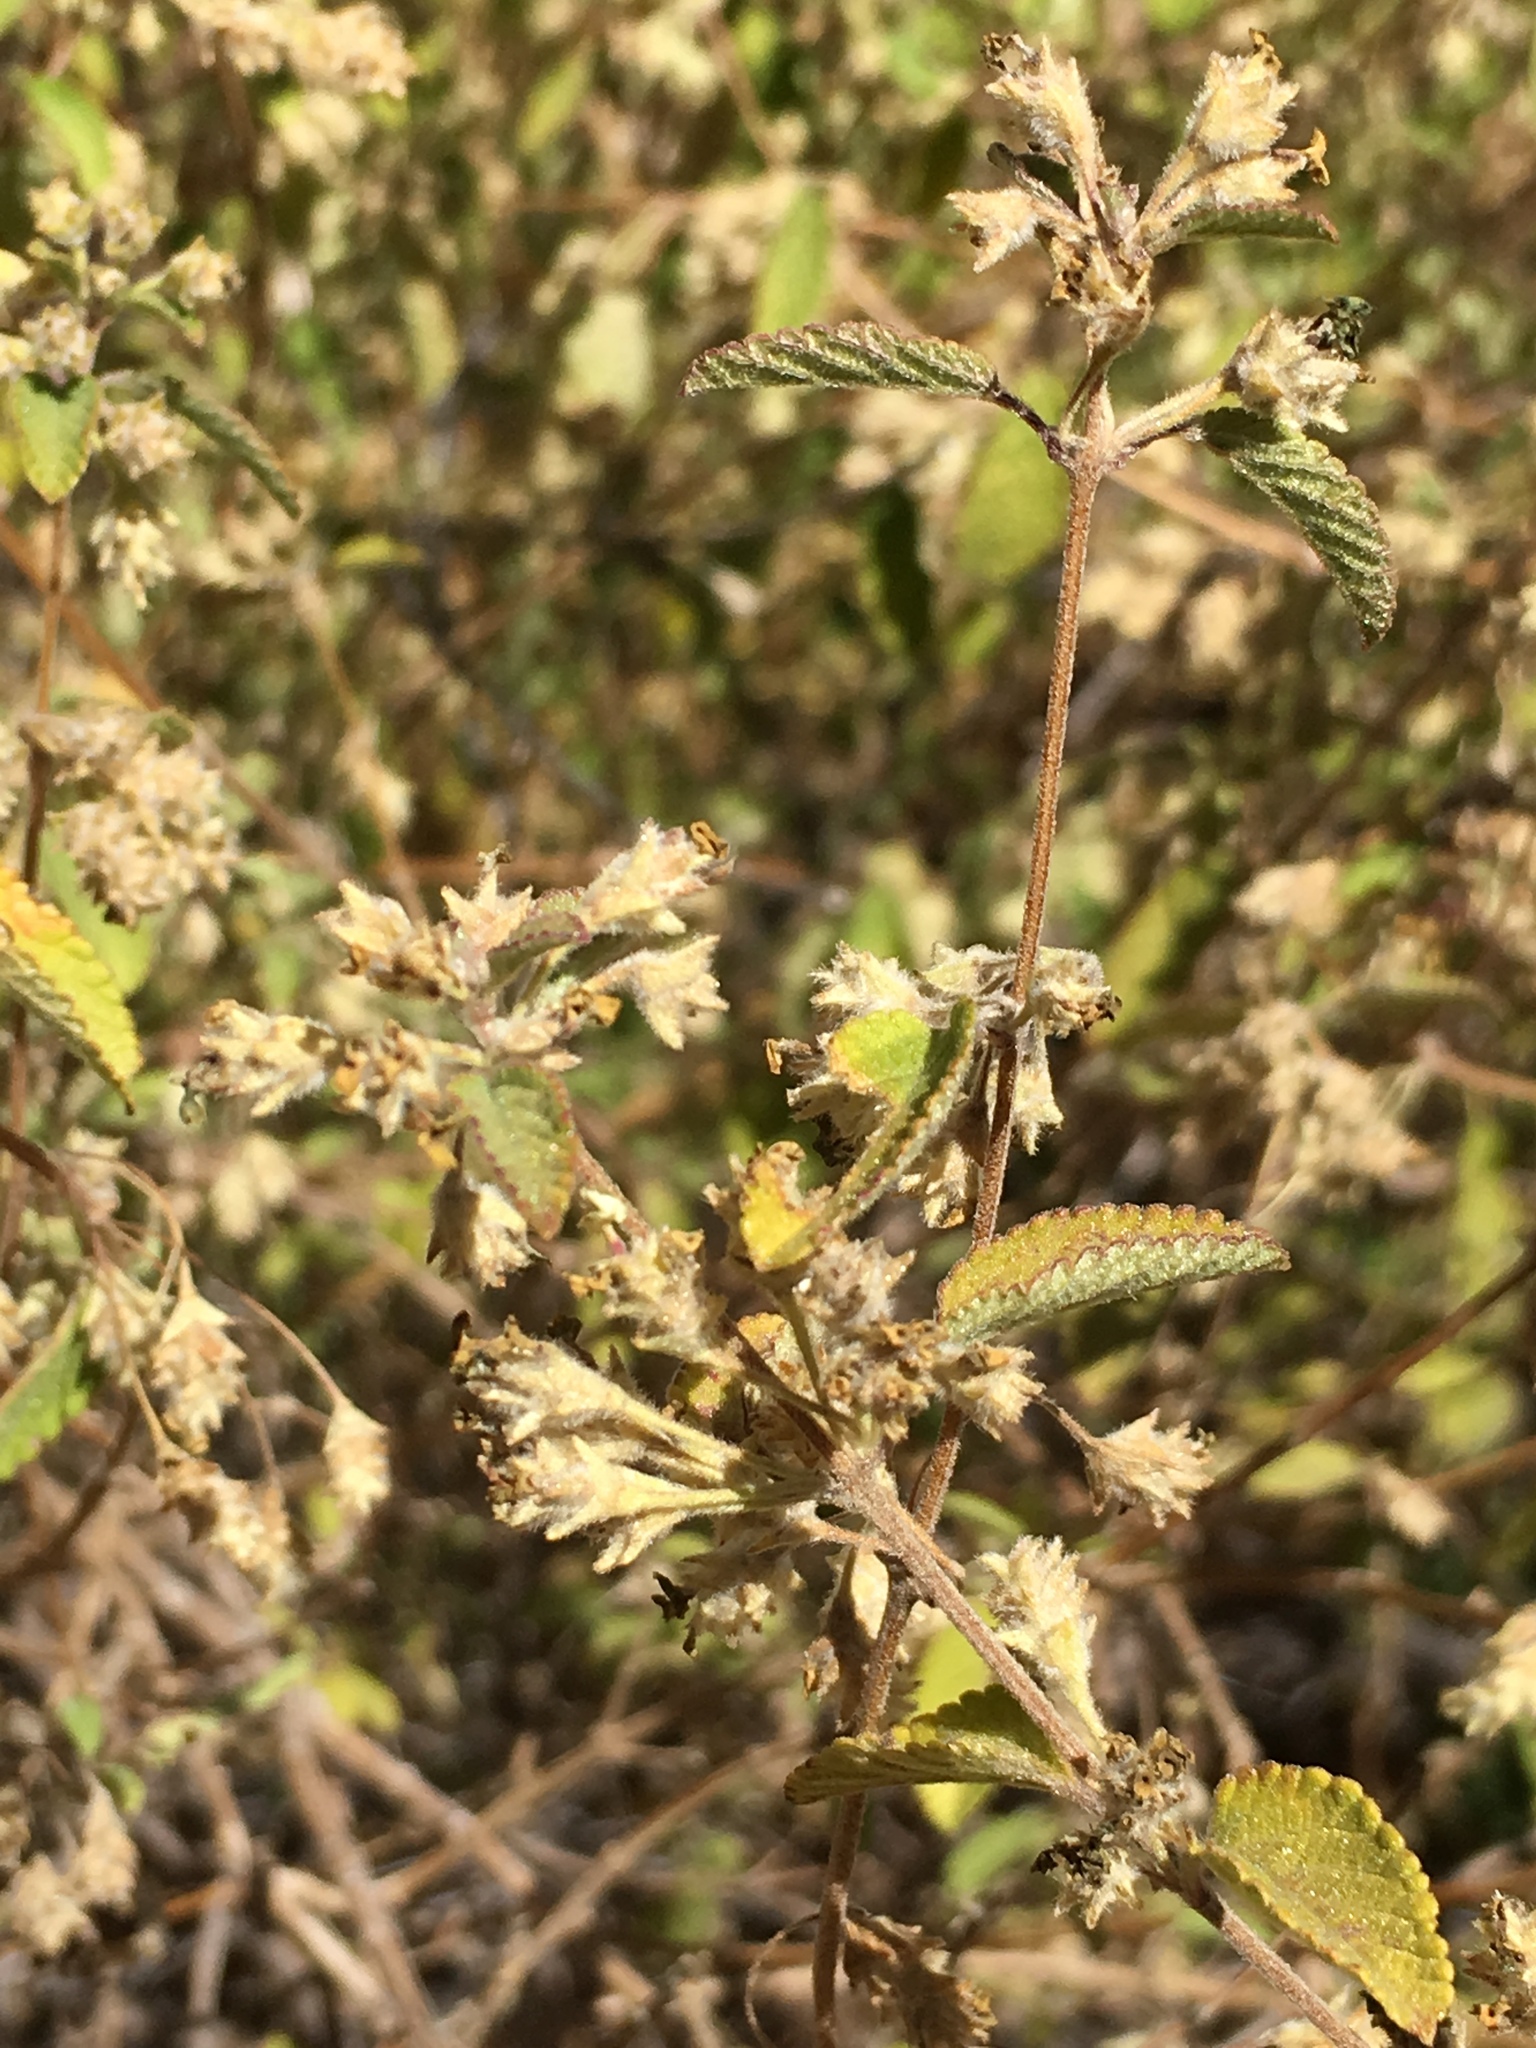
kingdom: Plantae
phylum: Tracheophyta
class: Magnoliopsida
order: Lamiales
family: Verbenaceae
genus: Lippia
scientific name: Lippia origanoides
